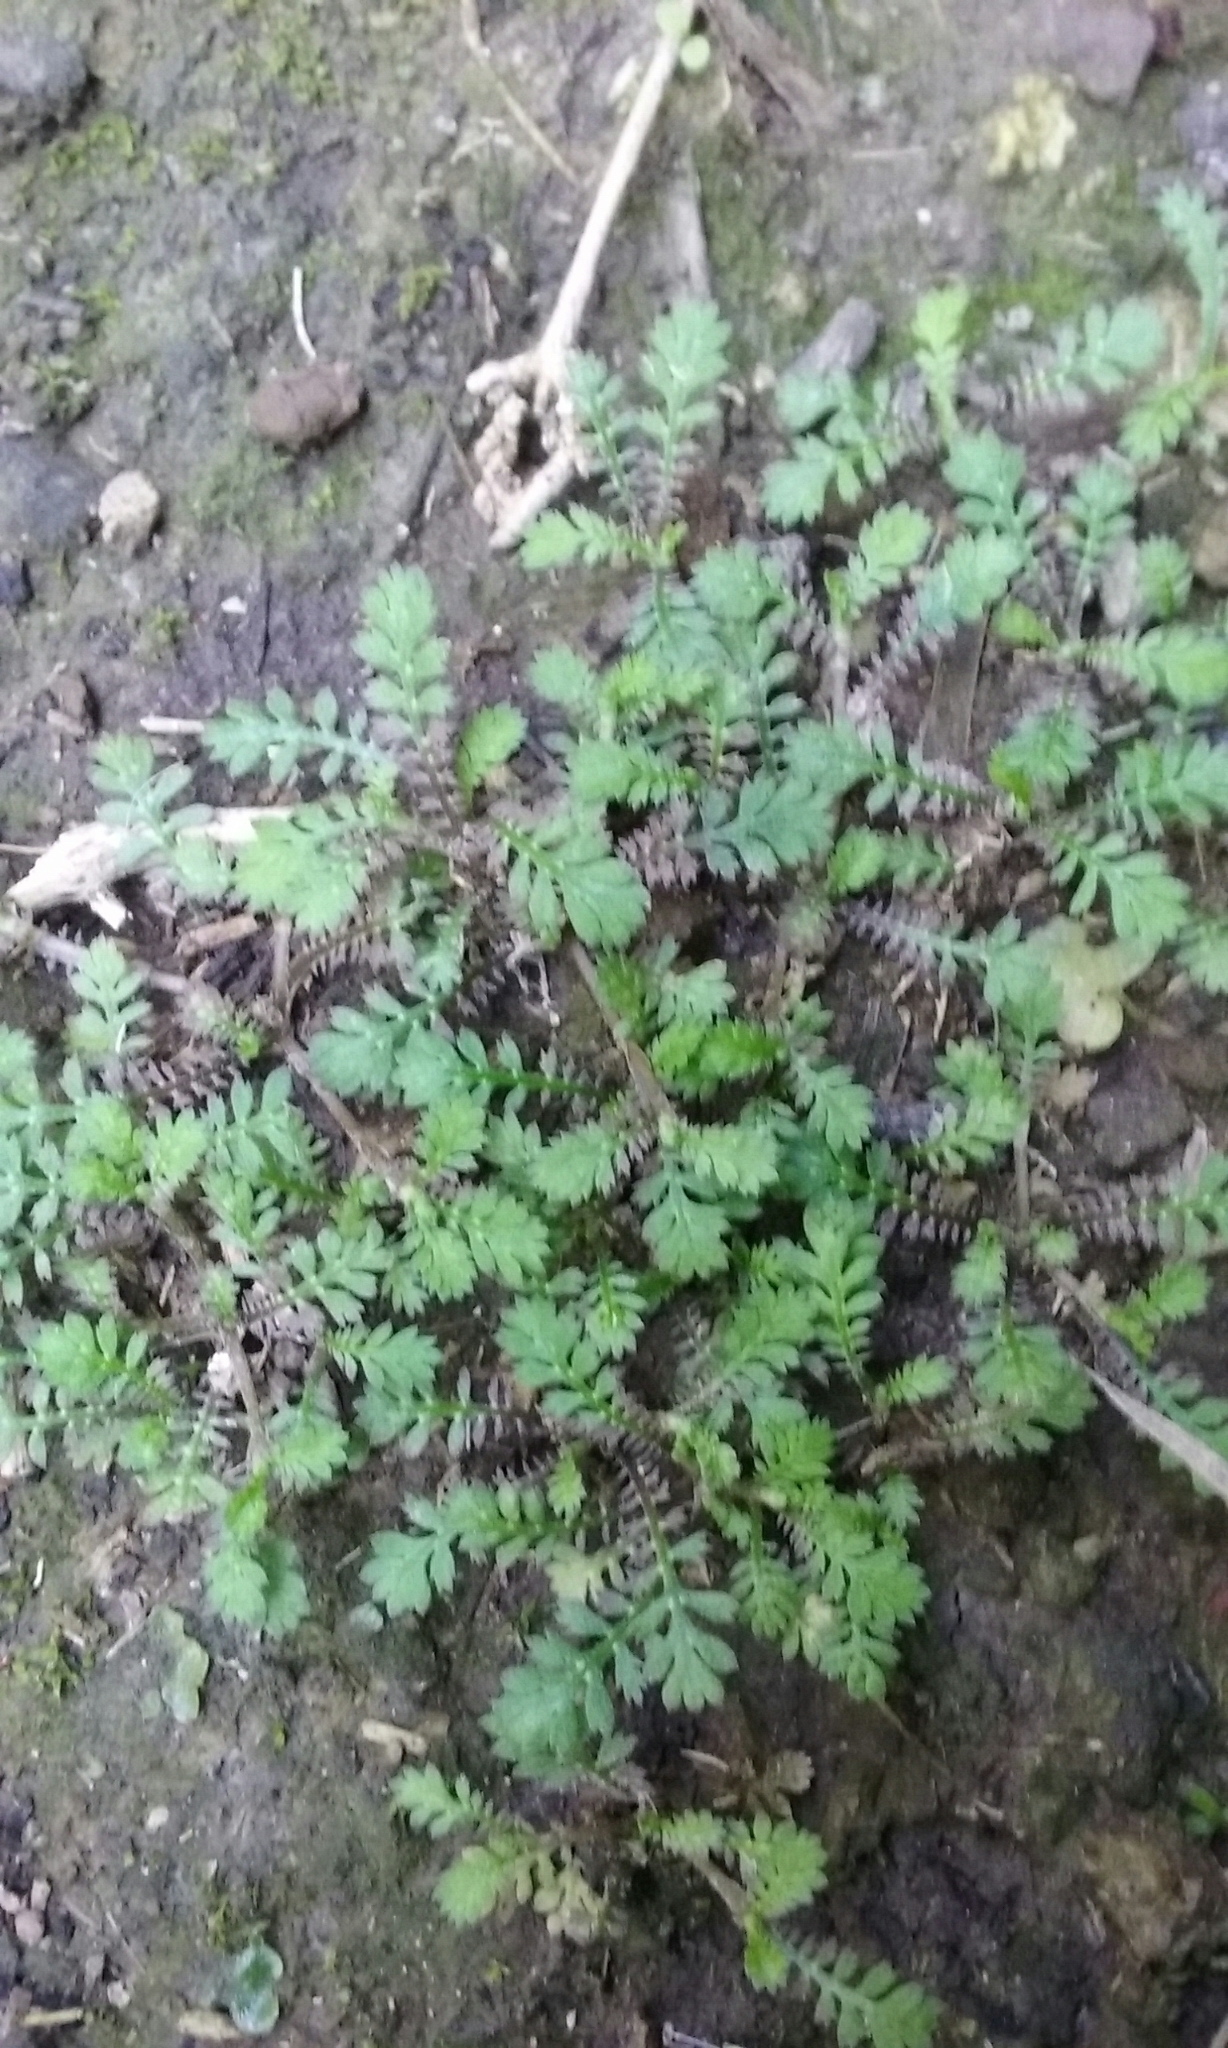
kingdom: Plantae
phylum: Tracheophyta
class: Magnoliopsida
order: Asterales
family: Asteraceae
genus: Leptinella
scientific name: Leptinella nana
